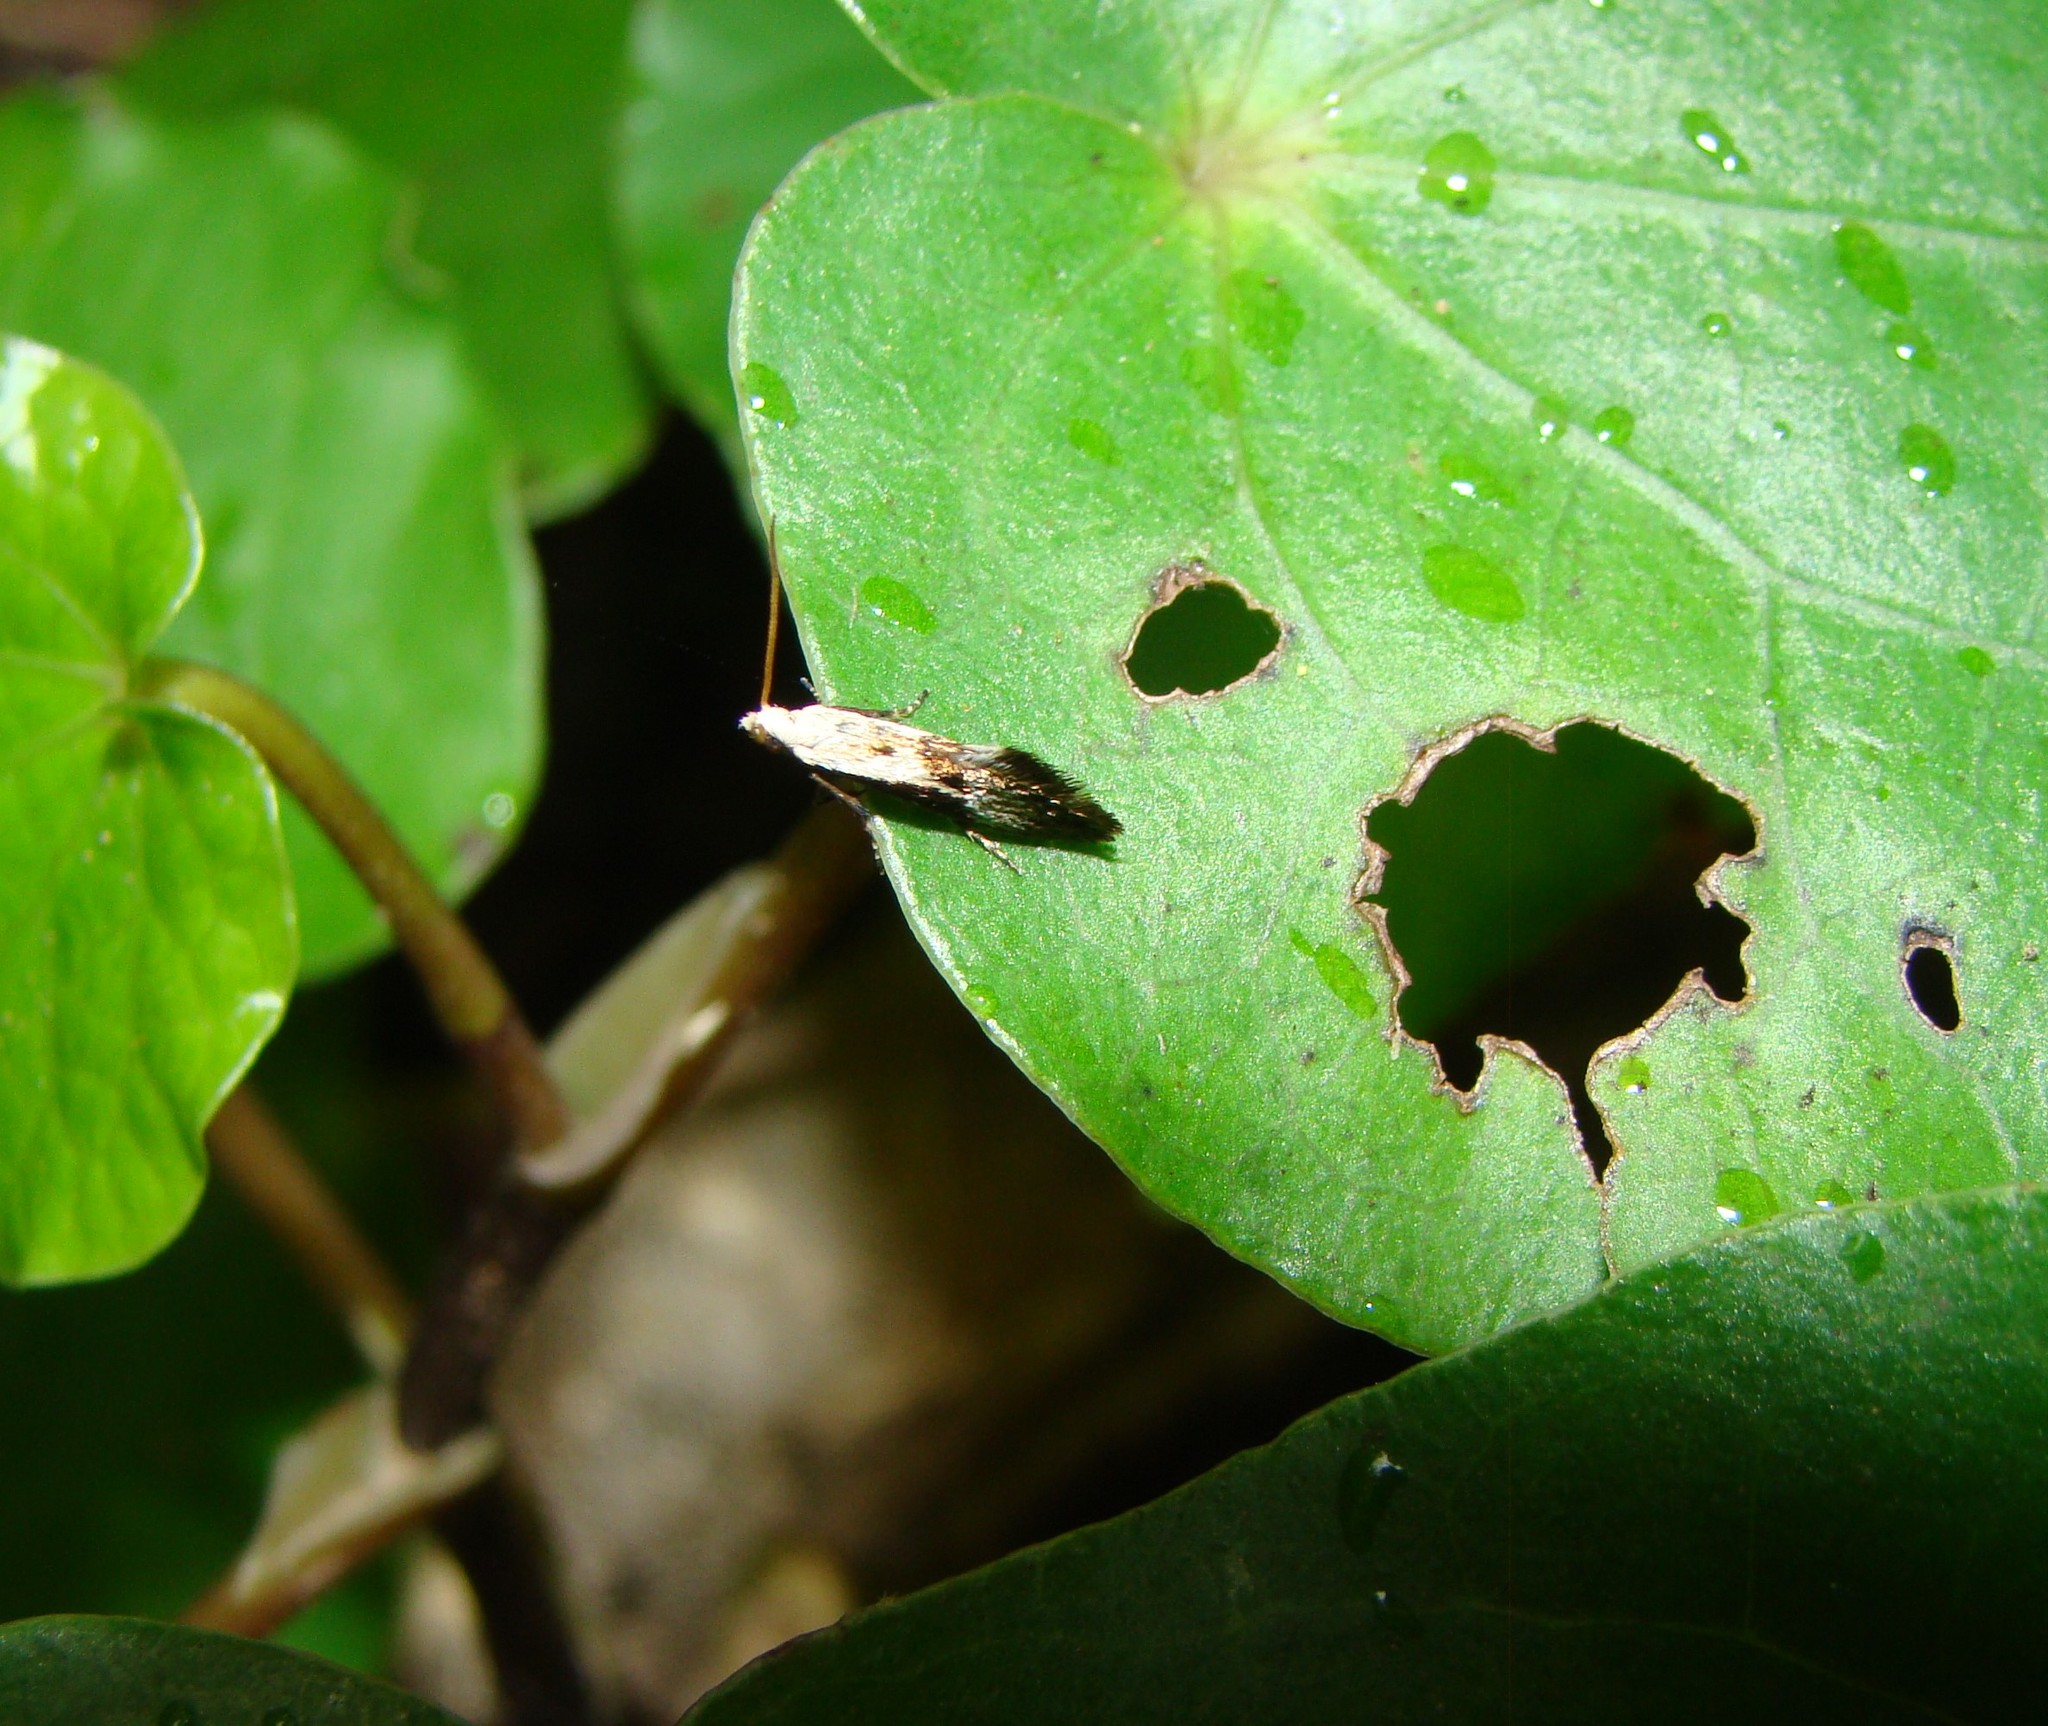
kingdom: Animalia
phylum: Arthropoda
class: Insecta
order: Lepidoptera
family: Mnesarchaeidae
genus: Mnesarchella
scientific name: Mnesarchella fusilella
